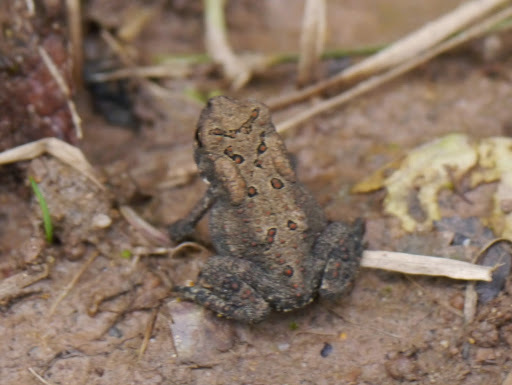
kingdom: Animalia
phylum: Chordata
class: Amphibia
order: Anura
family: Bufonidae
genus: Anaxyrus
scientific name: Anaxyrus americanus
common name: American toad
